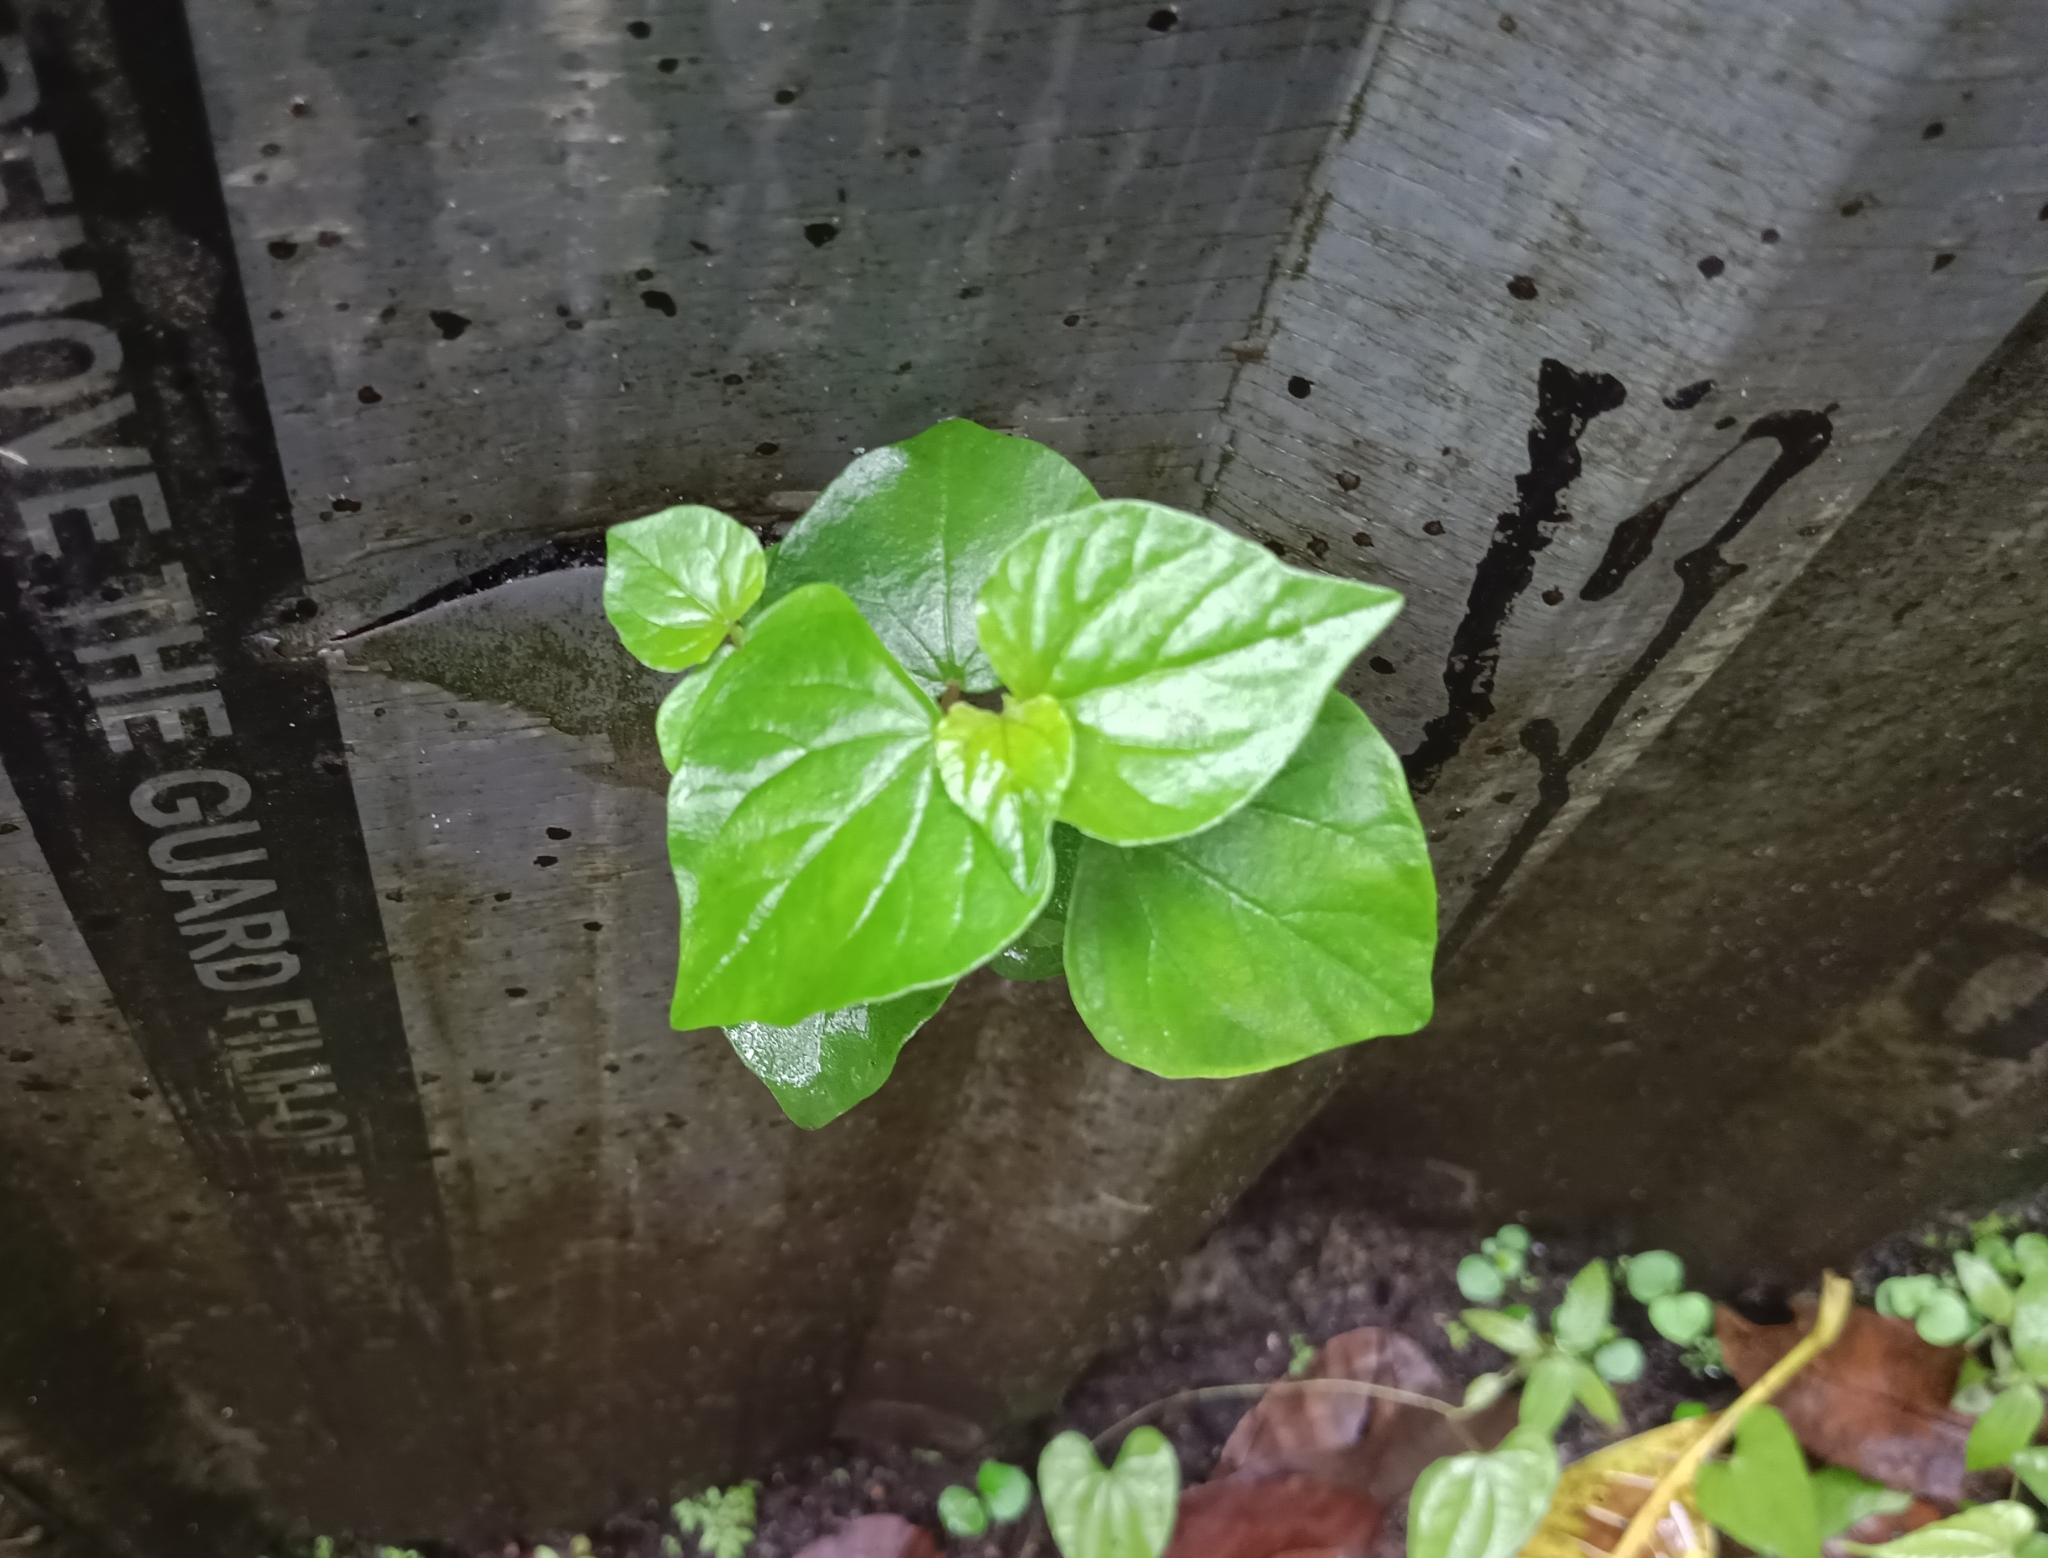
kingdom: Plantae
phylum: Tracheophyta
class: Magnoliopsida
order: Piperales
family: Piperaceae
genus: Peperomia
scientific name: Peperomia pellucida
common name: Man to man
